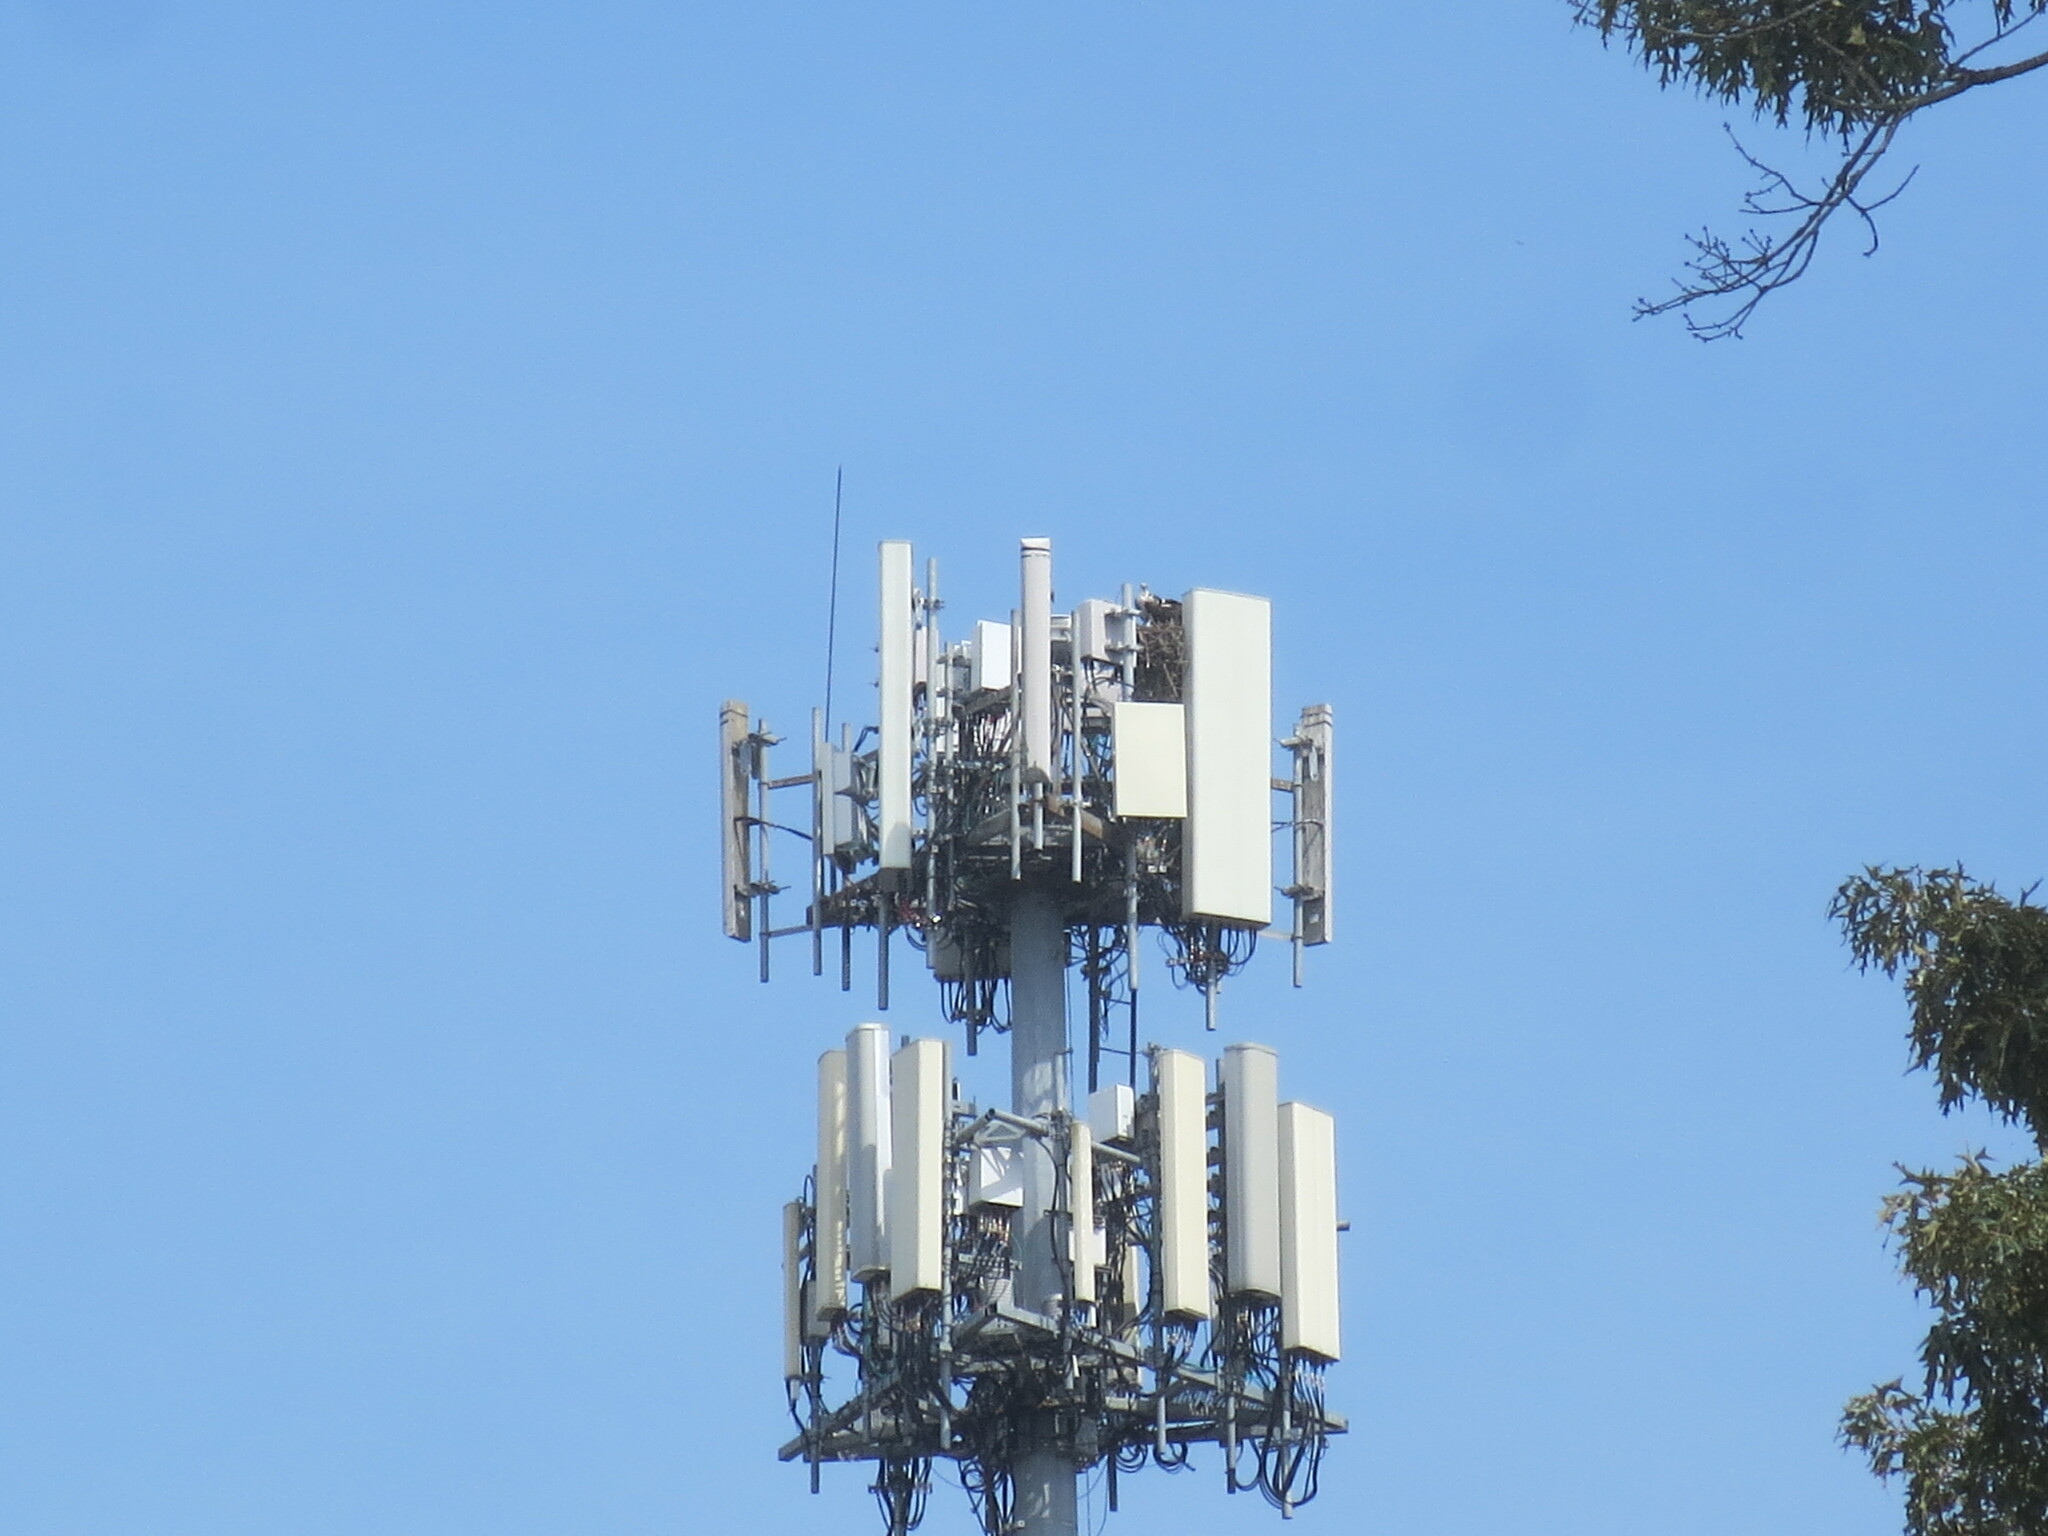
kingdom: Animalia
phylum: Chordata
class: Aves
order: Accipitriformes
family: Pandionidae
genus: Pandion
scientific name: Pandion haliaetus
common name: Osprey
